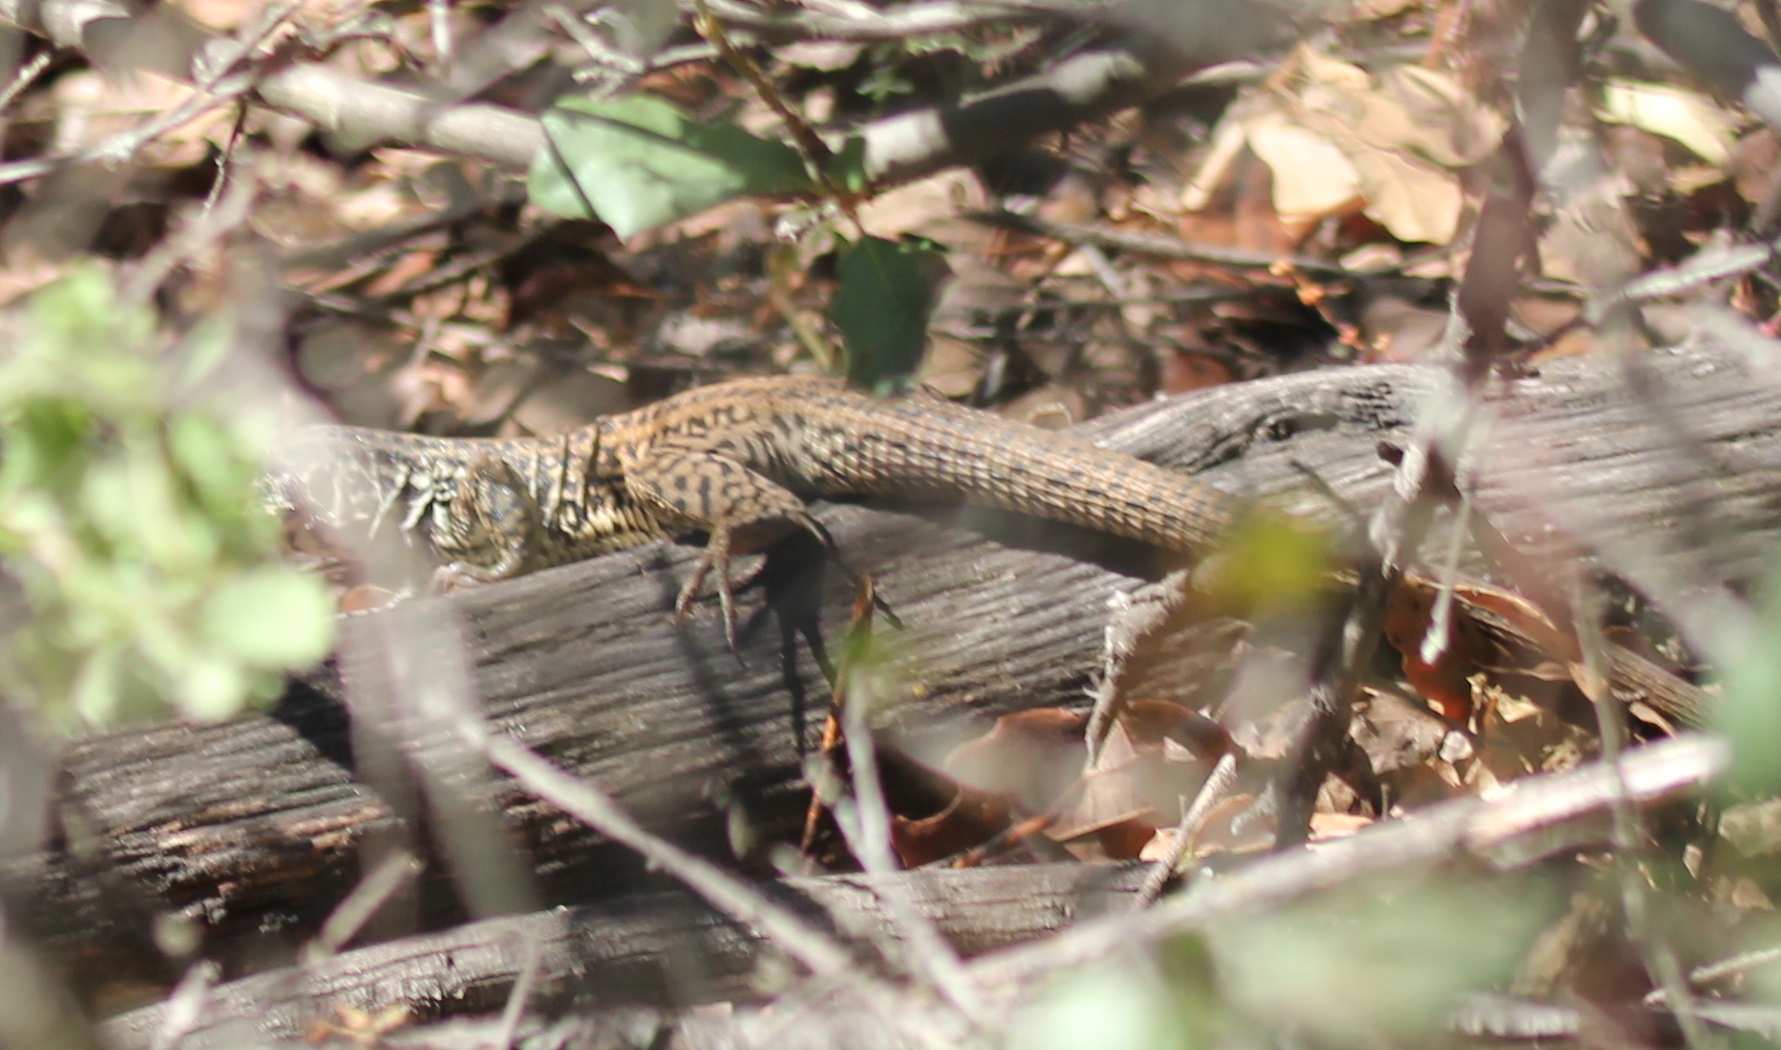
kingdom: Animalia
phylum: Chordata
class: Squamata
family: Teiidae
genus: Aspidoscelis
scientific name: Aspidoscelis tigris
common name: Tiger whiptail
